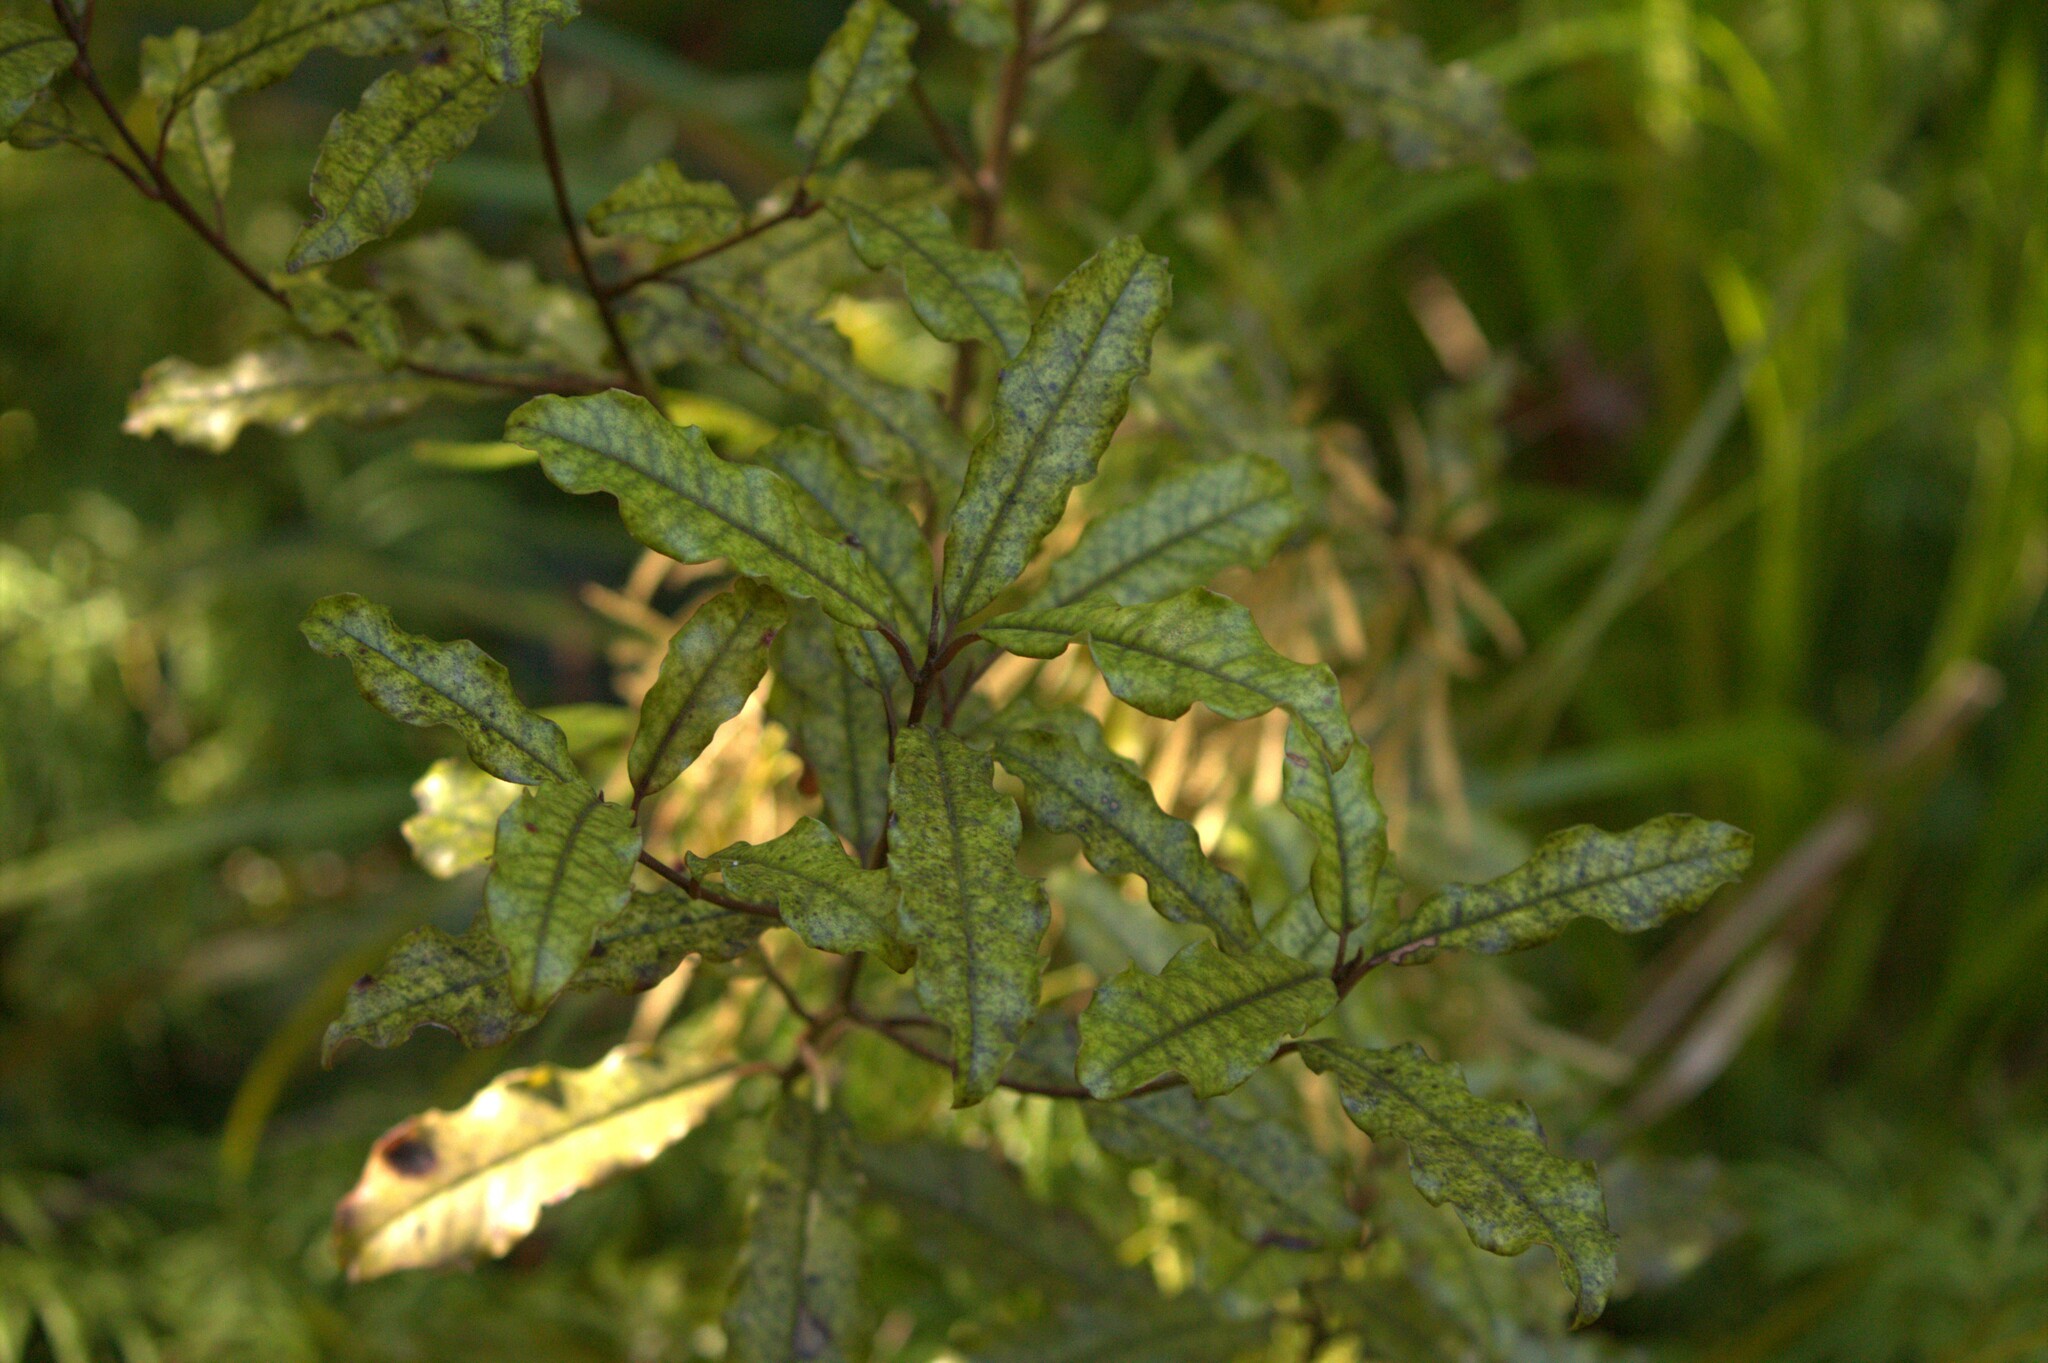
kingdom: Plantae
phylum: Tracheophyta
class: Magnoliopsida
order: Paracryphiales
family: Paracryphiaceae
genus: Quintinia
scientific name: Quintinia serrata
